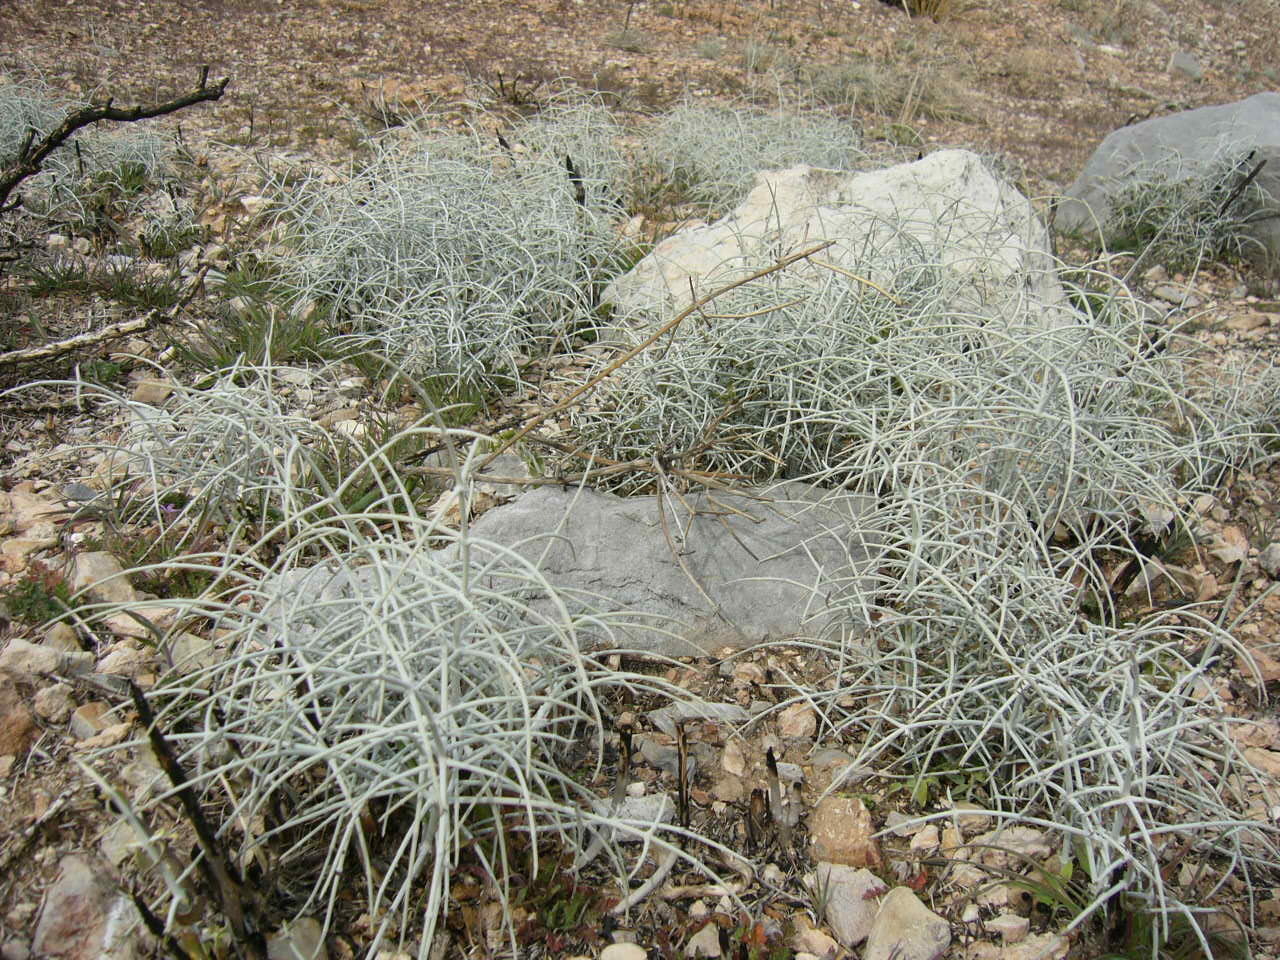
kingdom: Plantae
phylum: Tracheophyta
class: Magnoliopsida
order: Lamiales
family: Lamiaceae
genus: Scutellaria
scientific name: Scutellaria mexicana
